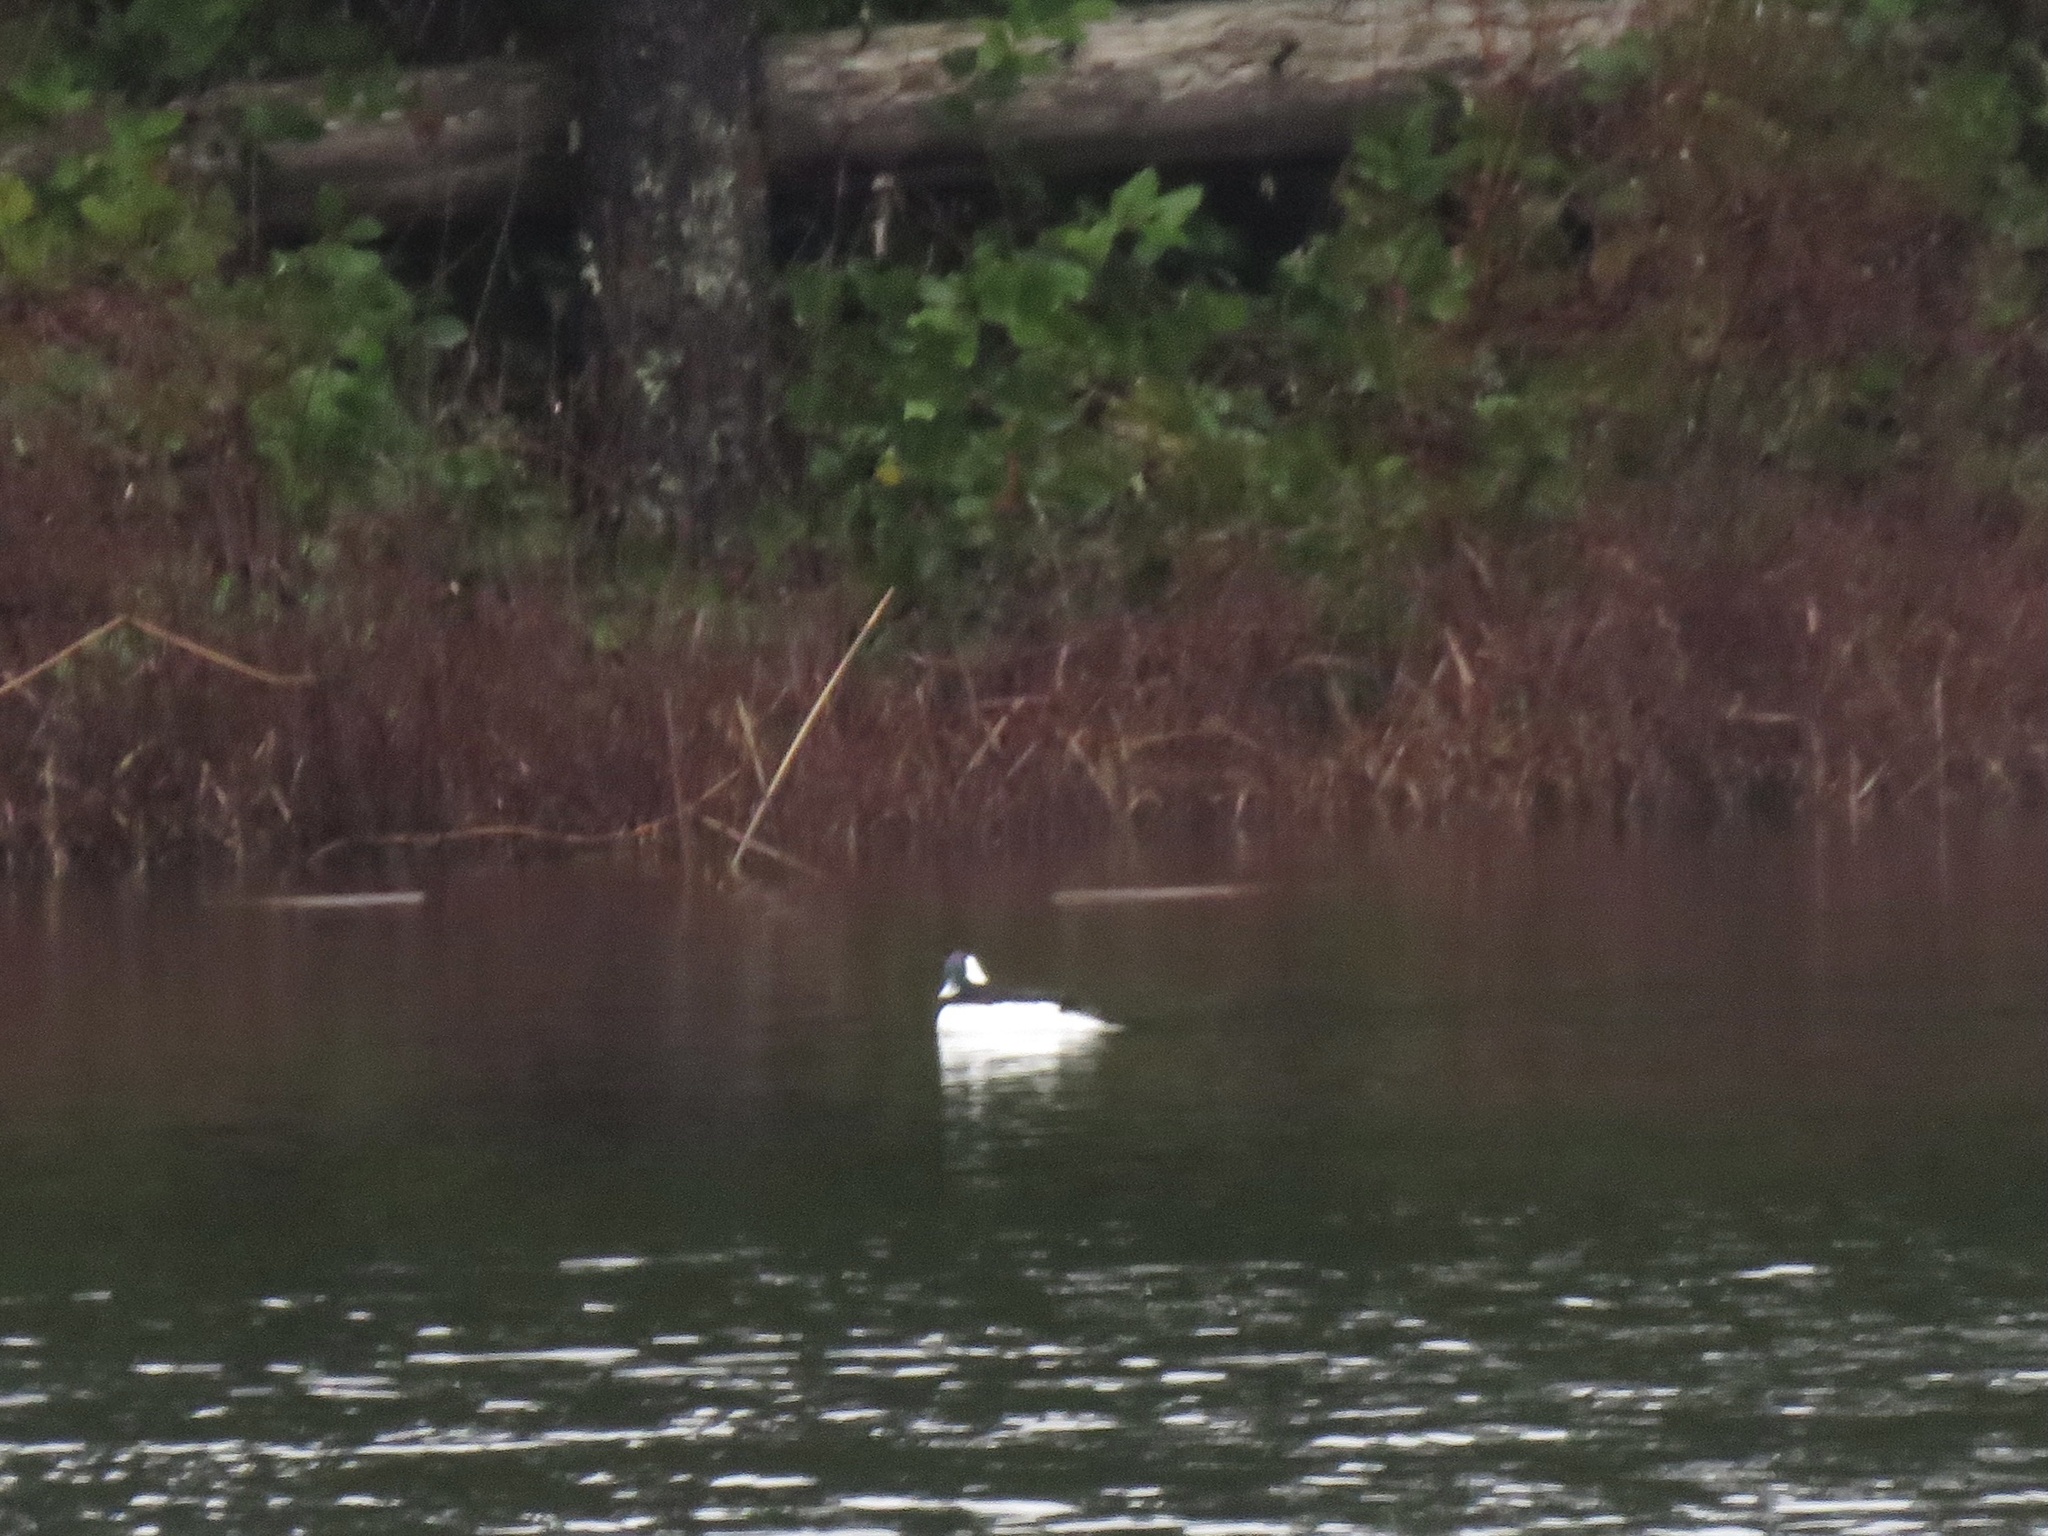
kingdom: Animalia
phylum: Chordata
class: Aves
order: Anseriformes
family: Anatidae
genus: Bucephala
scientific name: Bucephala albeola
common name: Bufflehead
